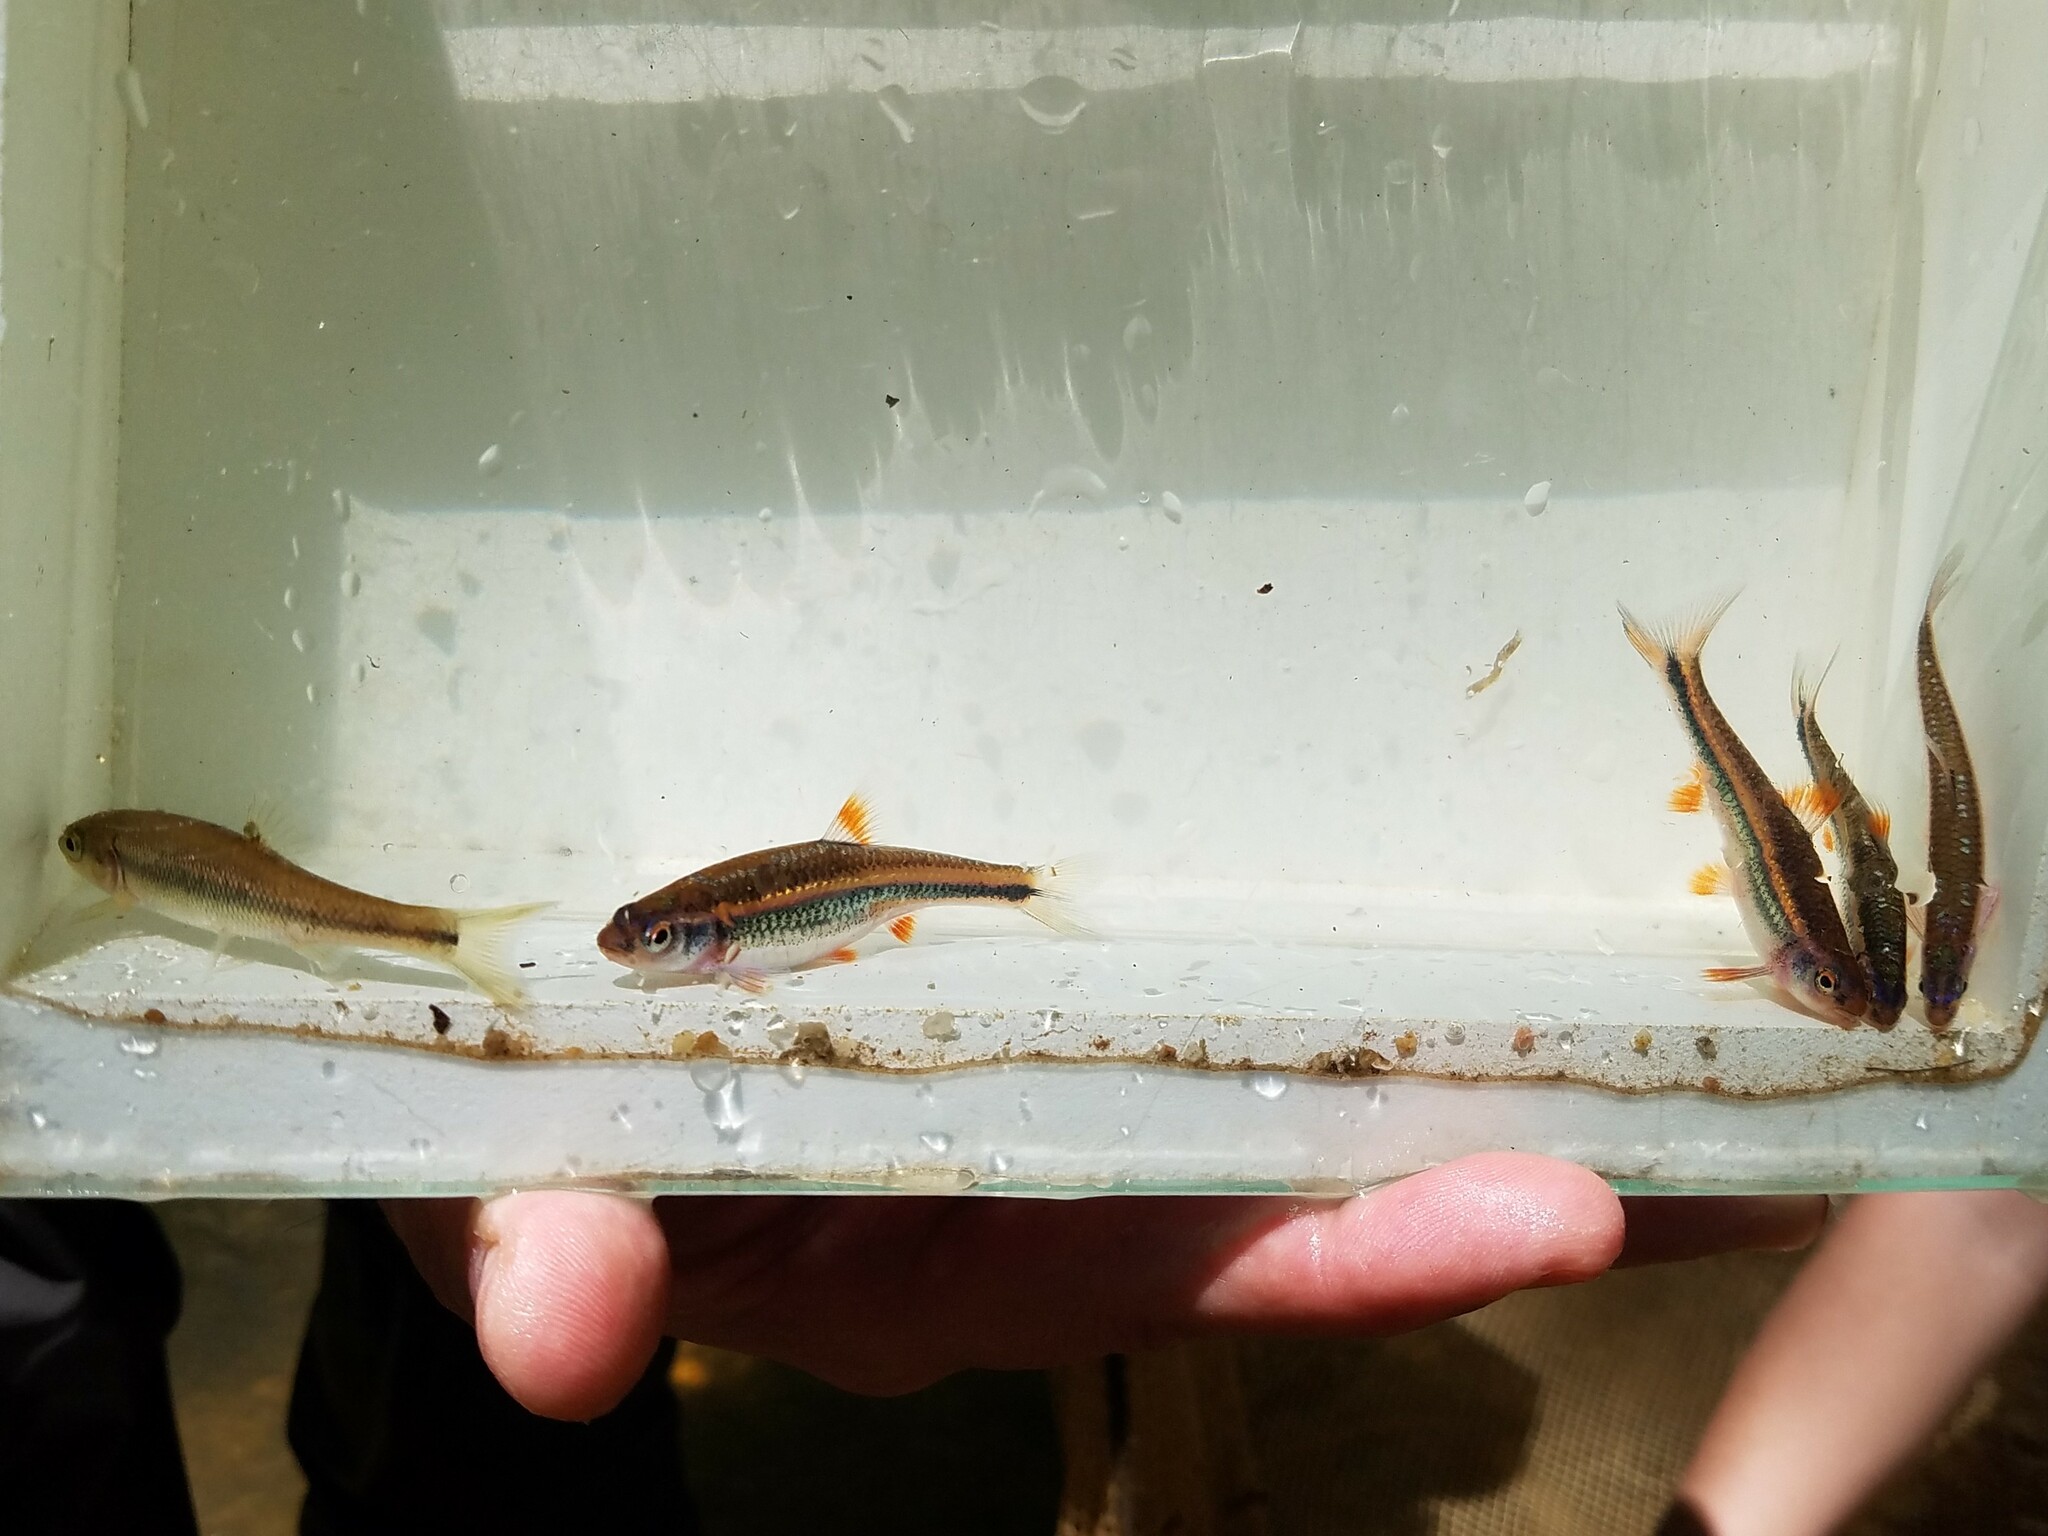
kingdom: Animalia
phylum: Chordata
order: Cypriniformes
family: Cyprinidae
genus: Notropis
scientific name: Notropis
